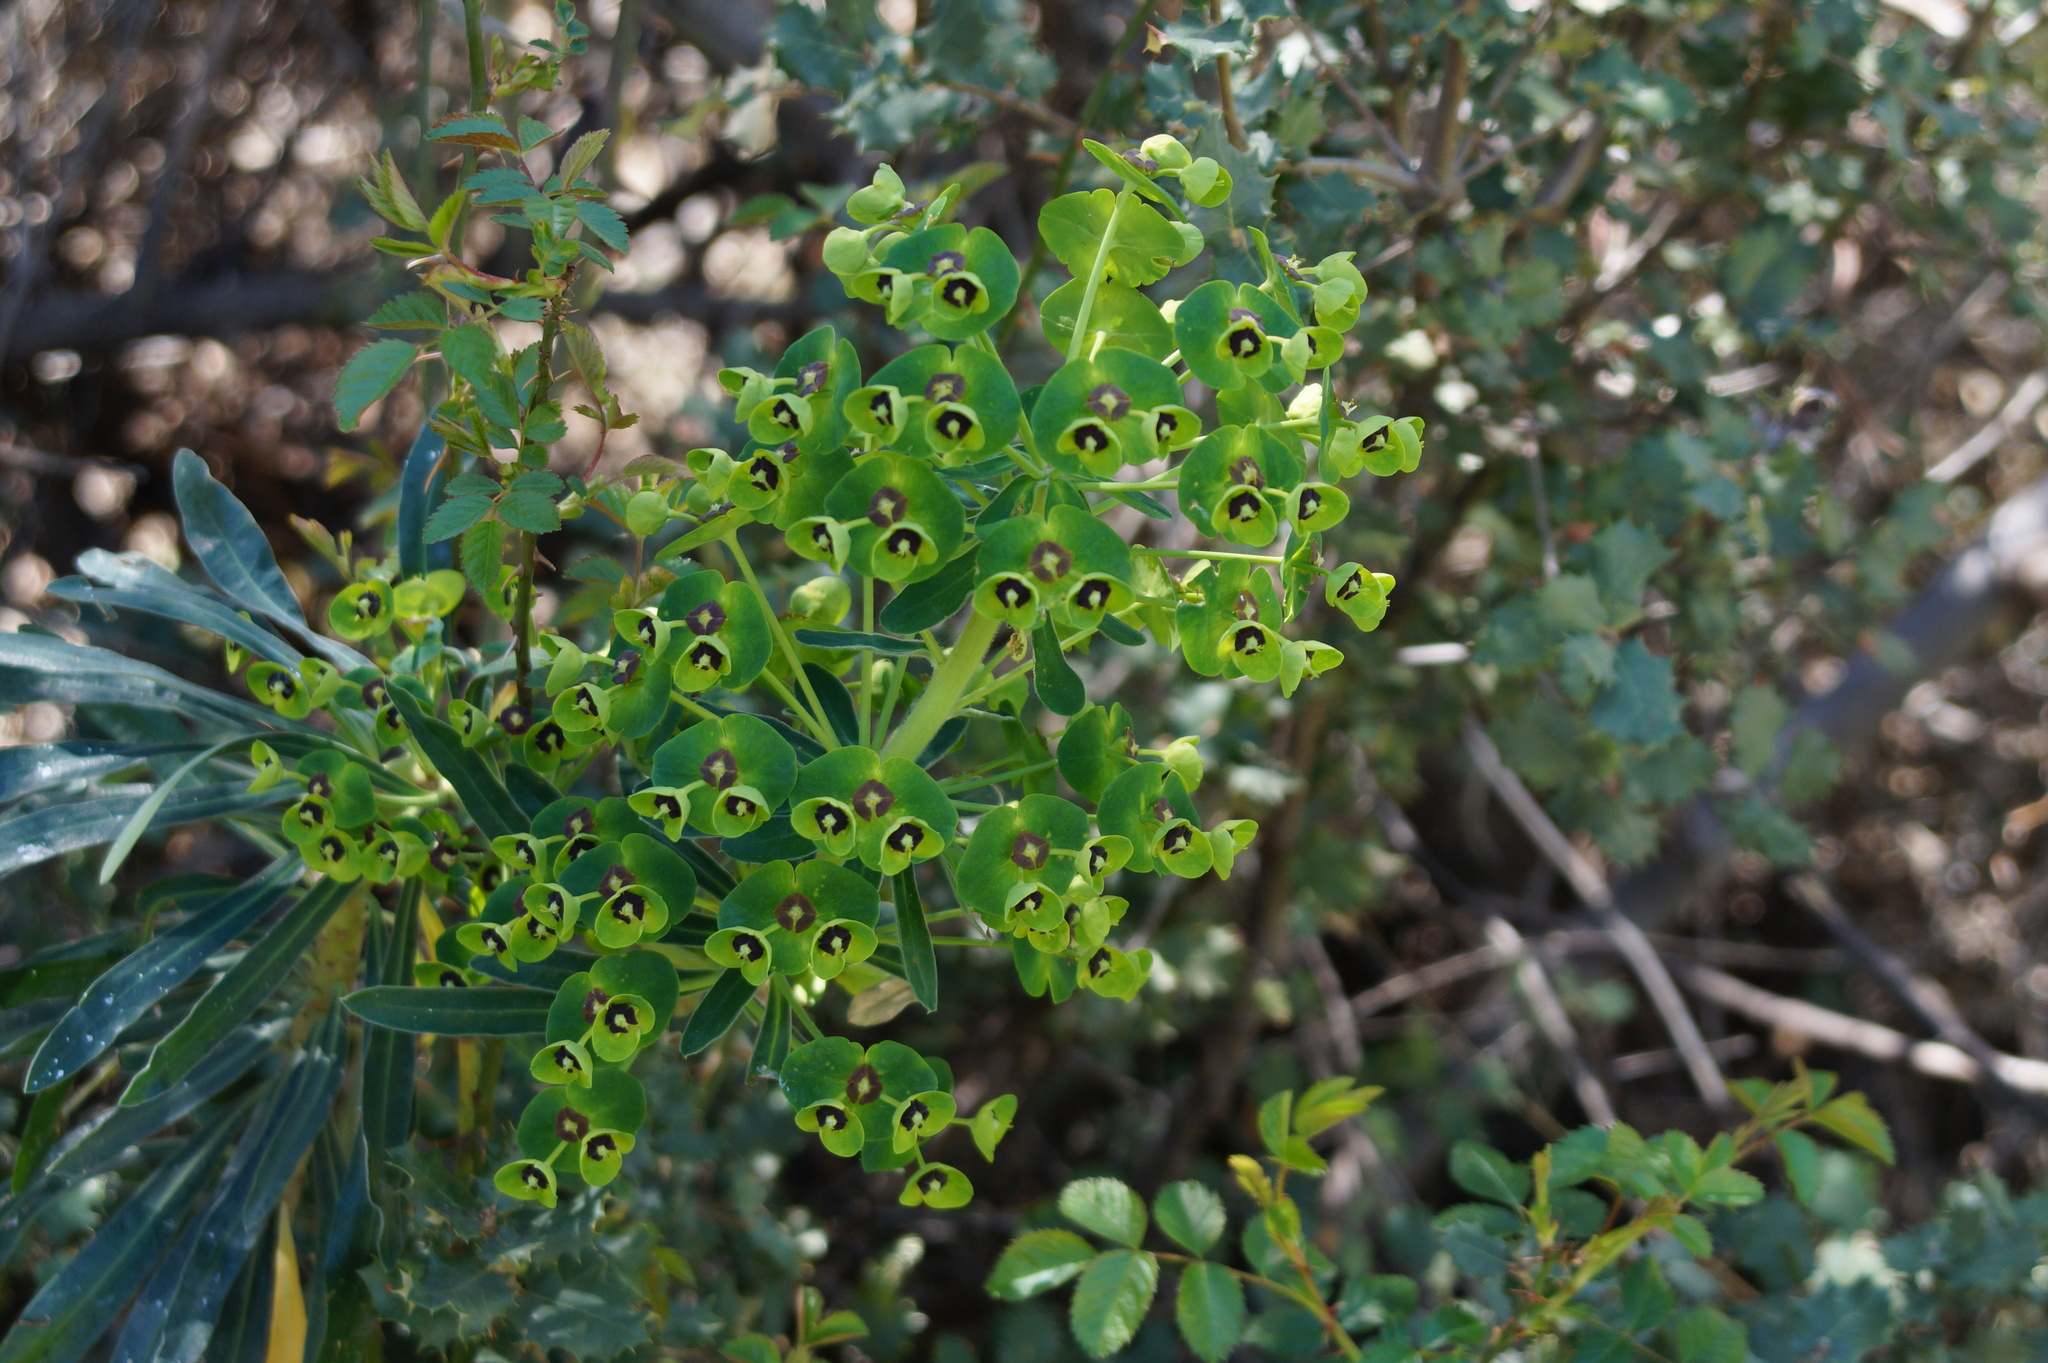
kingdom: Plantae
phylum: Tracheophyta
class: Magnoliopsida
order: Malpighiales
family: Euphorbiaceae
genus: Euphorbia
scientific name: Euphorbia characias
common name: Mediterranean spurge
